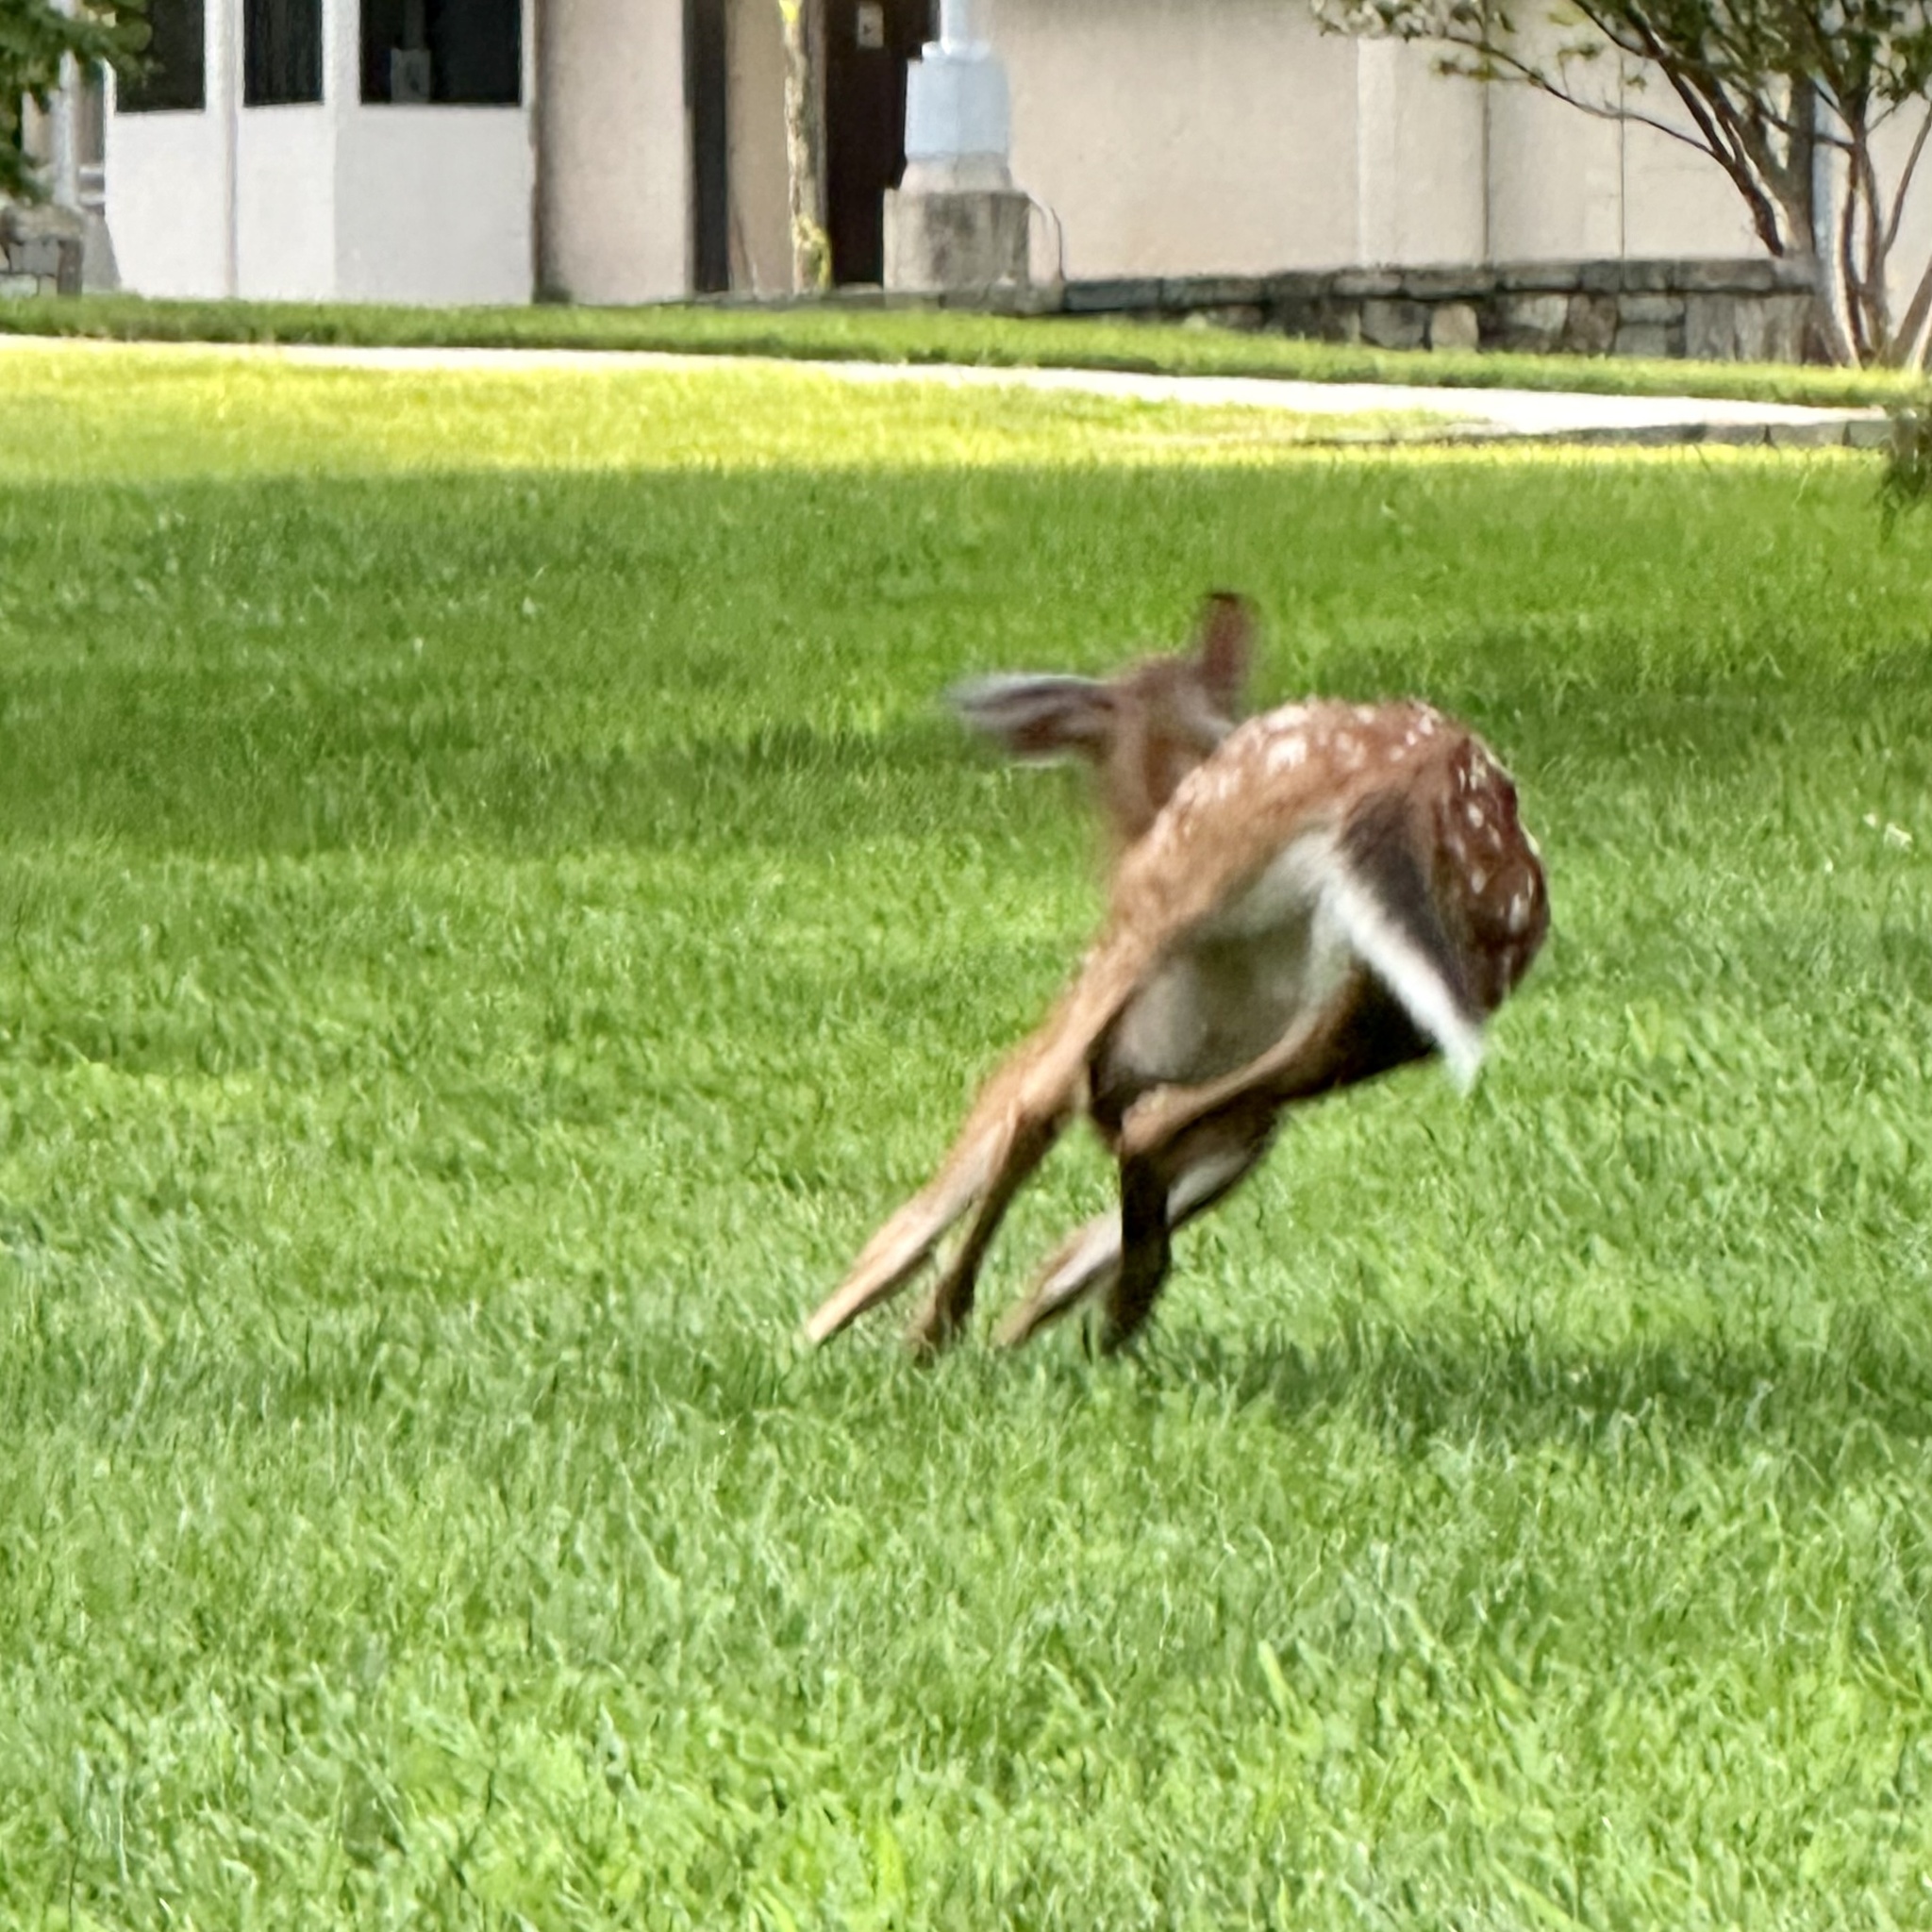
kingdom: Animalia
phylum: Chordata
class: Mammalia
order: Artiodactyla
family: Cervidae
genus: Odocoileus
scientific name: Odocoileus virginianus
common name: White-tailed deer
